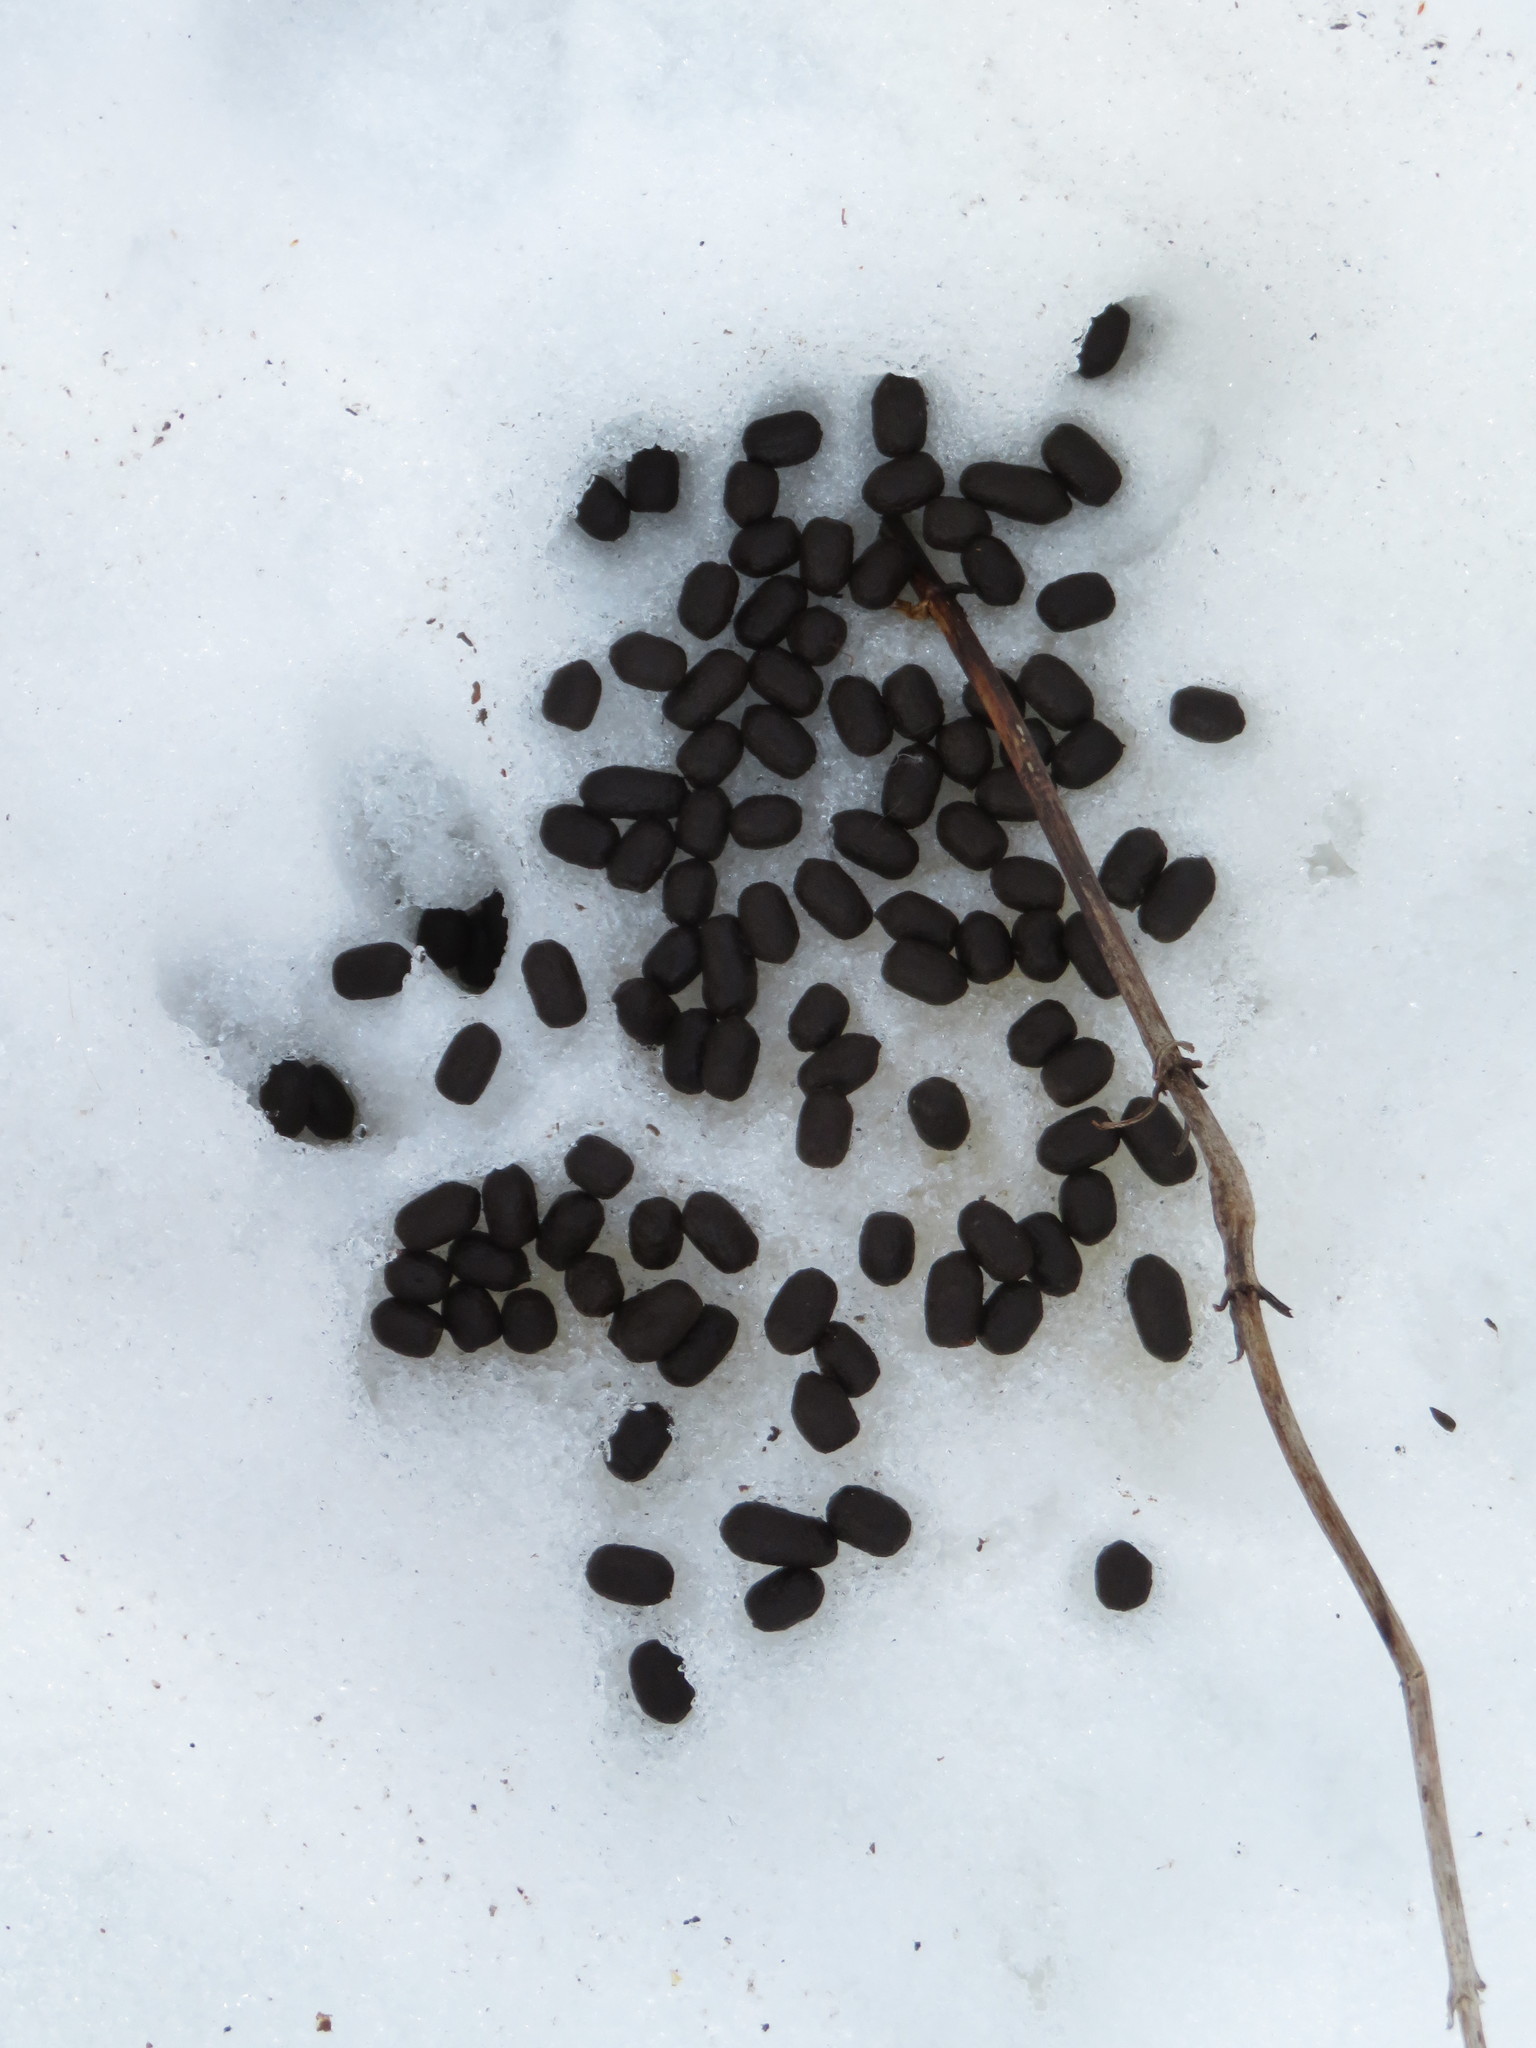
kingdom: Animalia
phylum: Chordata
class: Mammalia
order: Artiodactyla
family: Cervidae
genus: Odocoileus
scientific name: Odocoileus virginianus
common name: White-tailed deer
